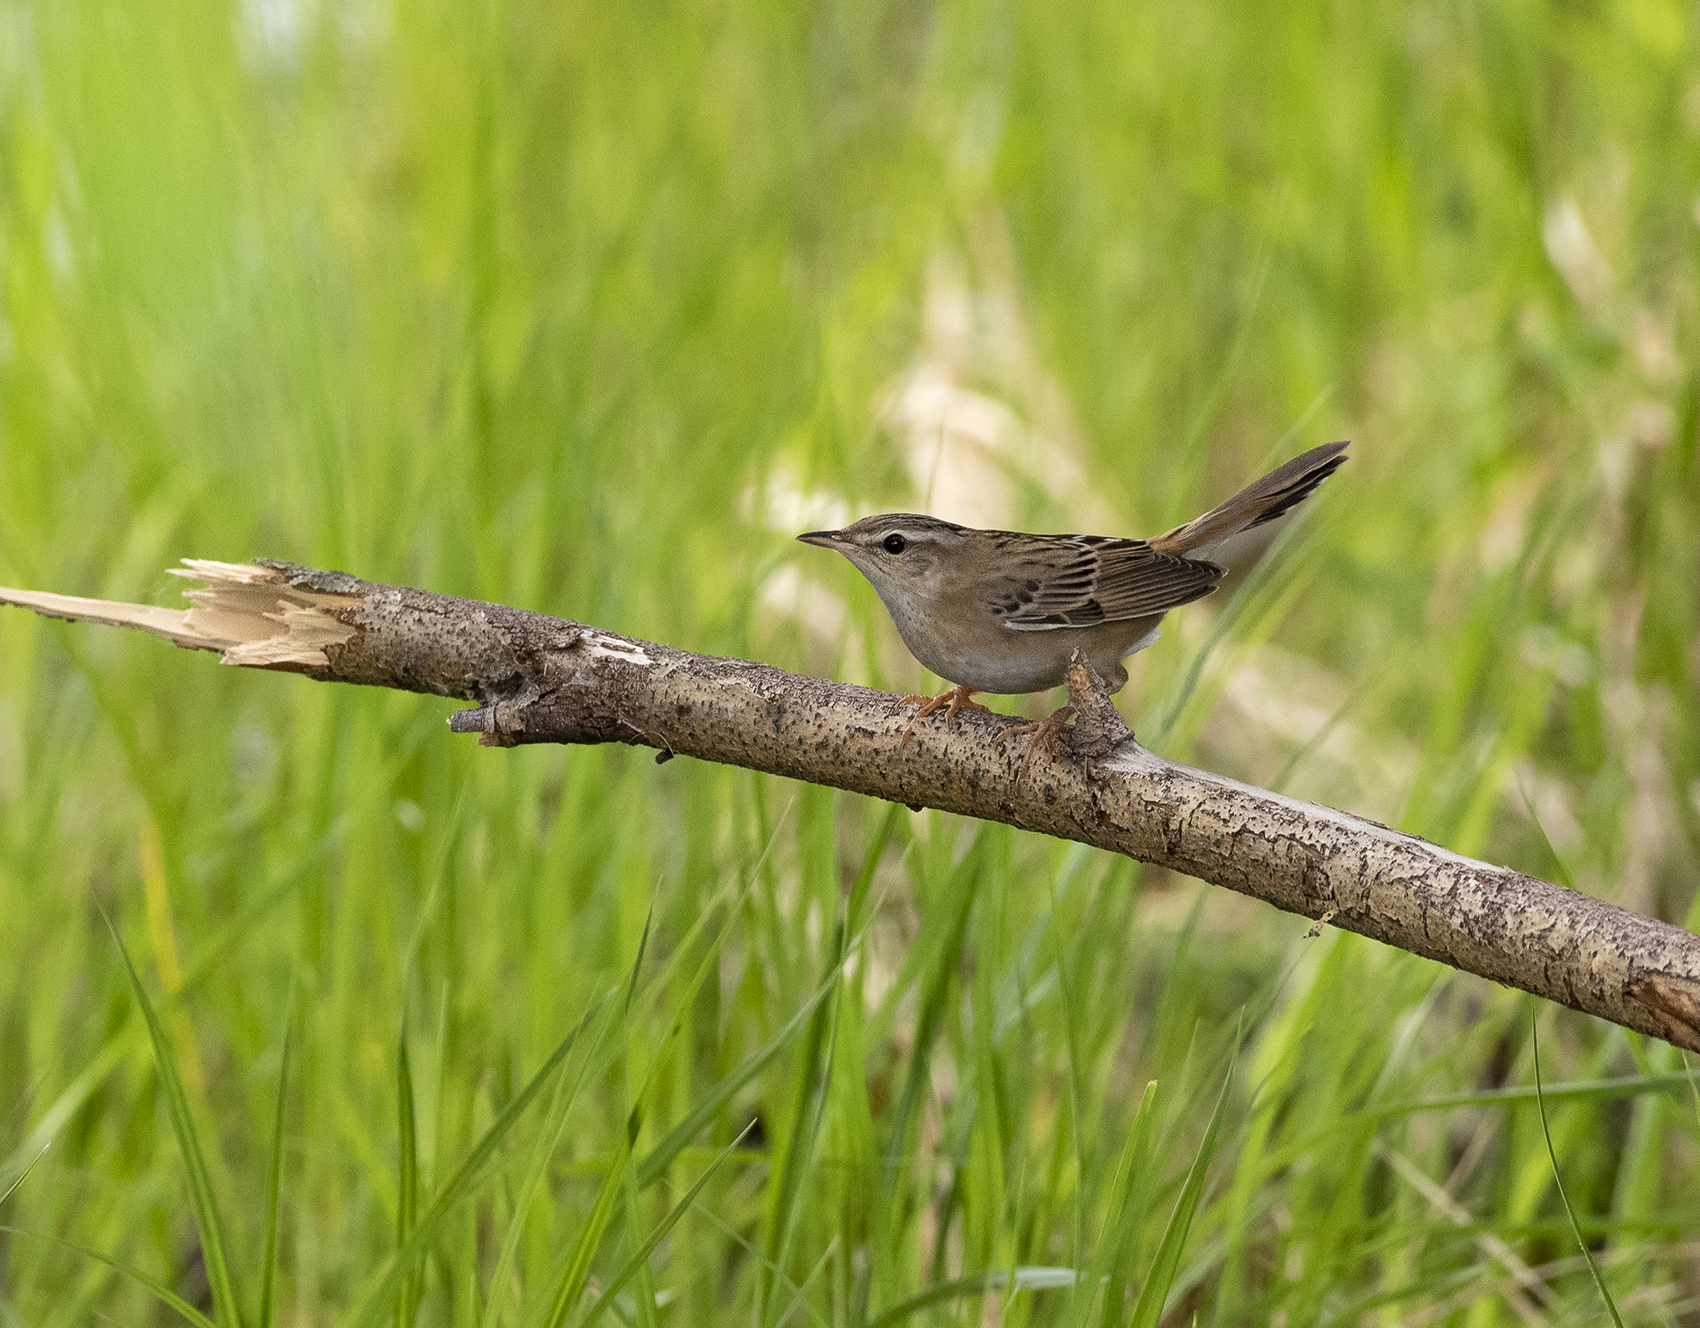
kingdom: Animalia
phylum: Chordata
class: Aves
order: Passeriformes
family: Locustellidae
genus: Locustella
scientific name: Locustella certhiola
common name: Pallas's grasshopper warbler
